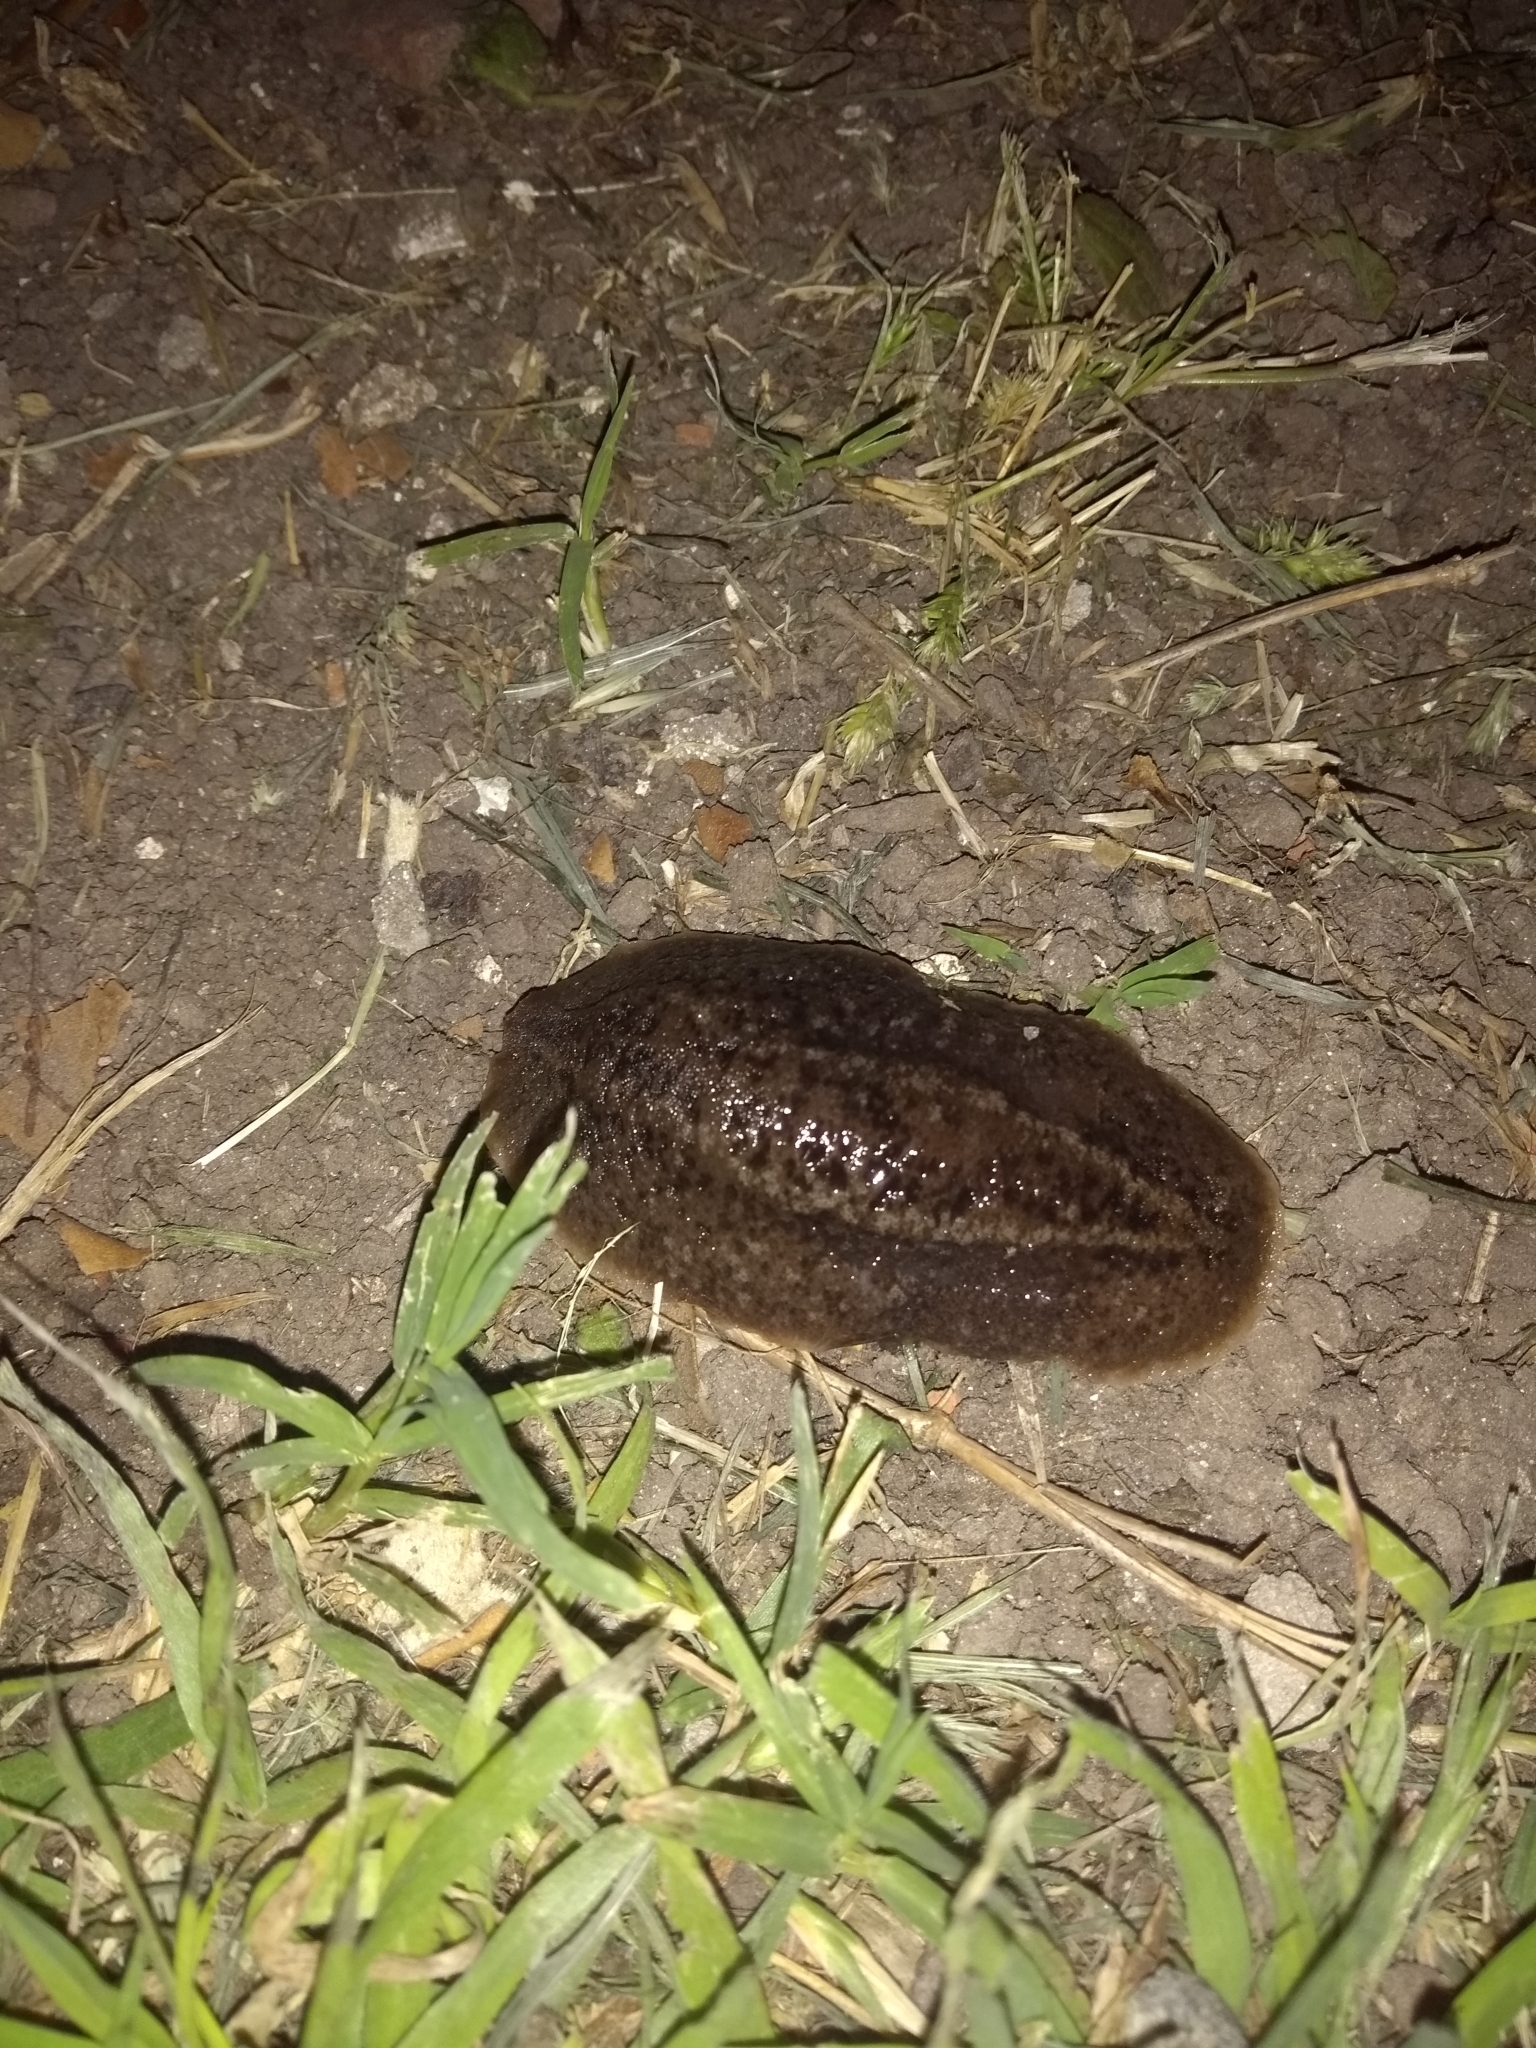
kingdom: Animalia
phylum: Mollusca
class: Gastropoda
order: Systellommatophora
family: Veronicellidae
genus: Phyllocaulis
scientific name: Phyllocaulis soleiformis
